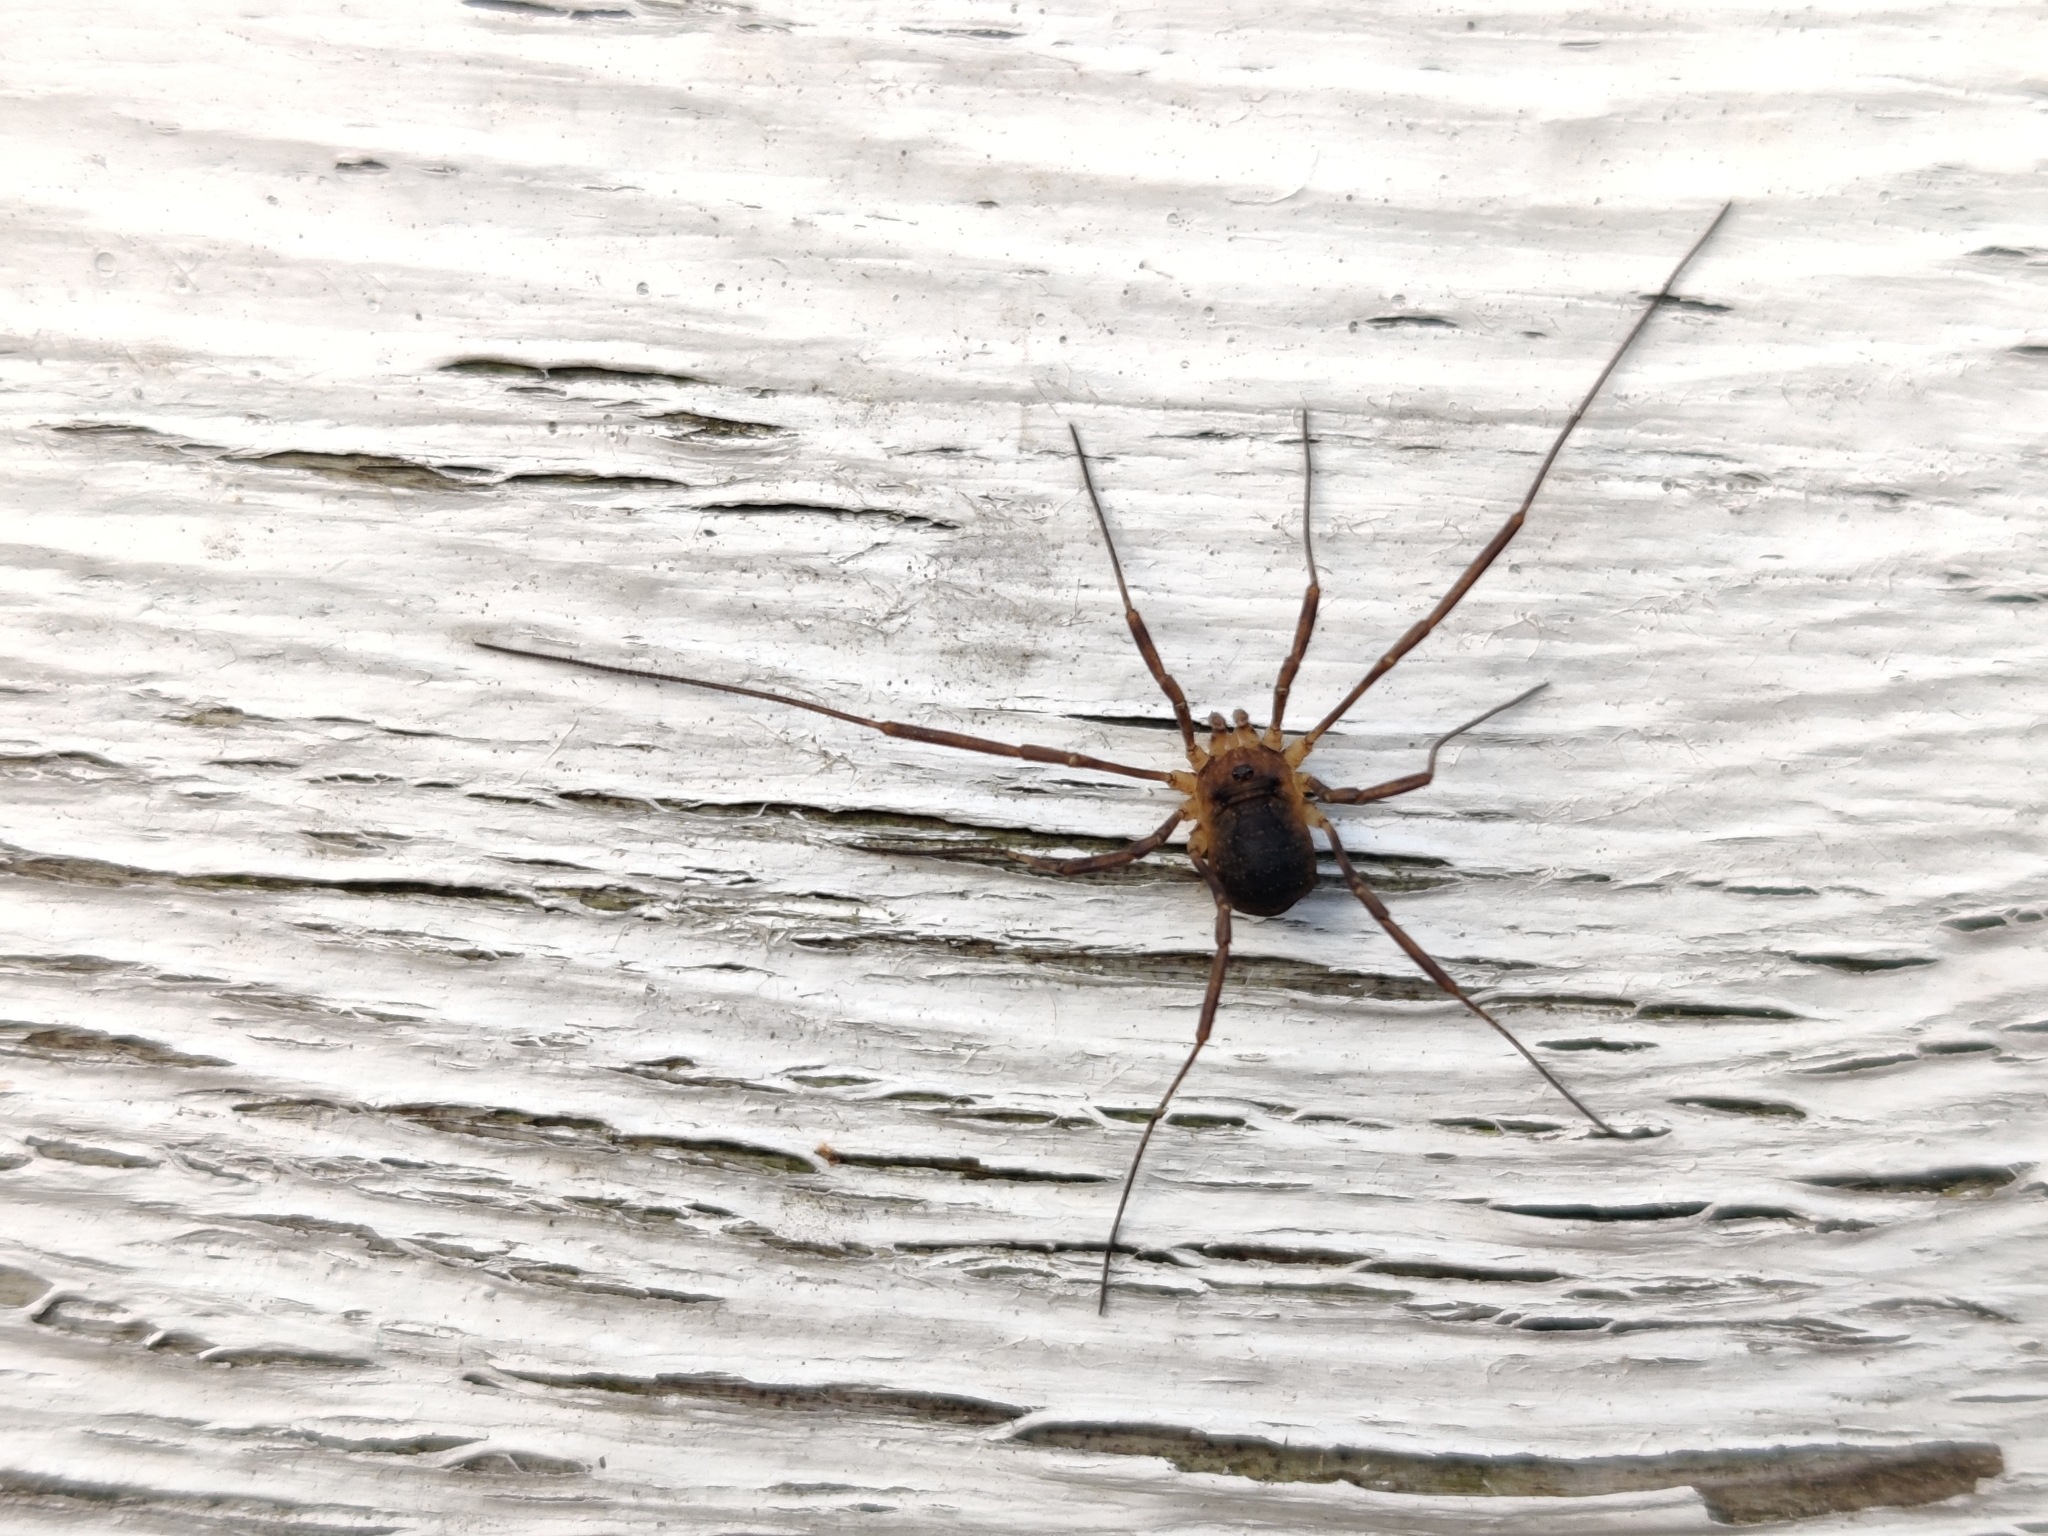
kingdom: Animalia
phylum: Arthropoda
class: Arachnida
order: Opiliones
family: Phalangiidae
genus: Oligolophus
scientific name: Oligolophus hansenii
